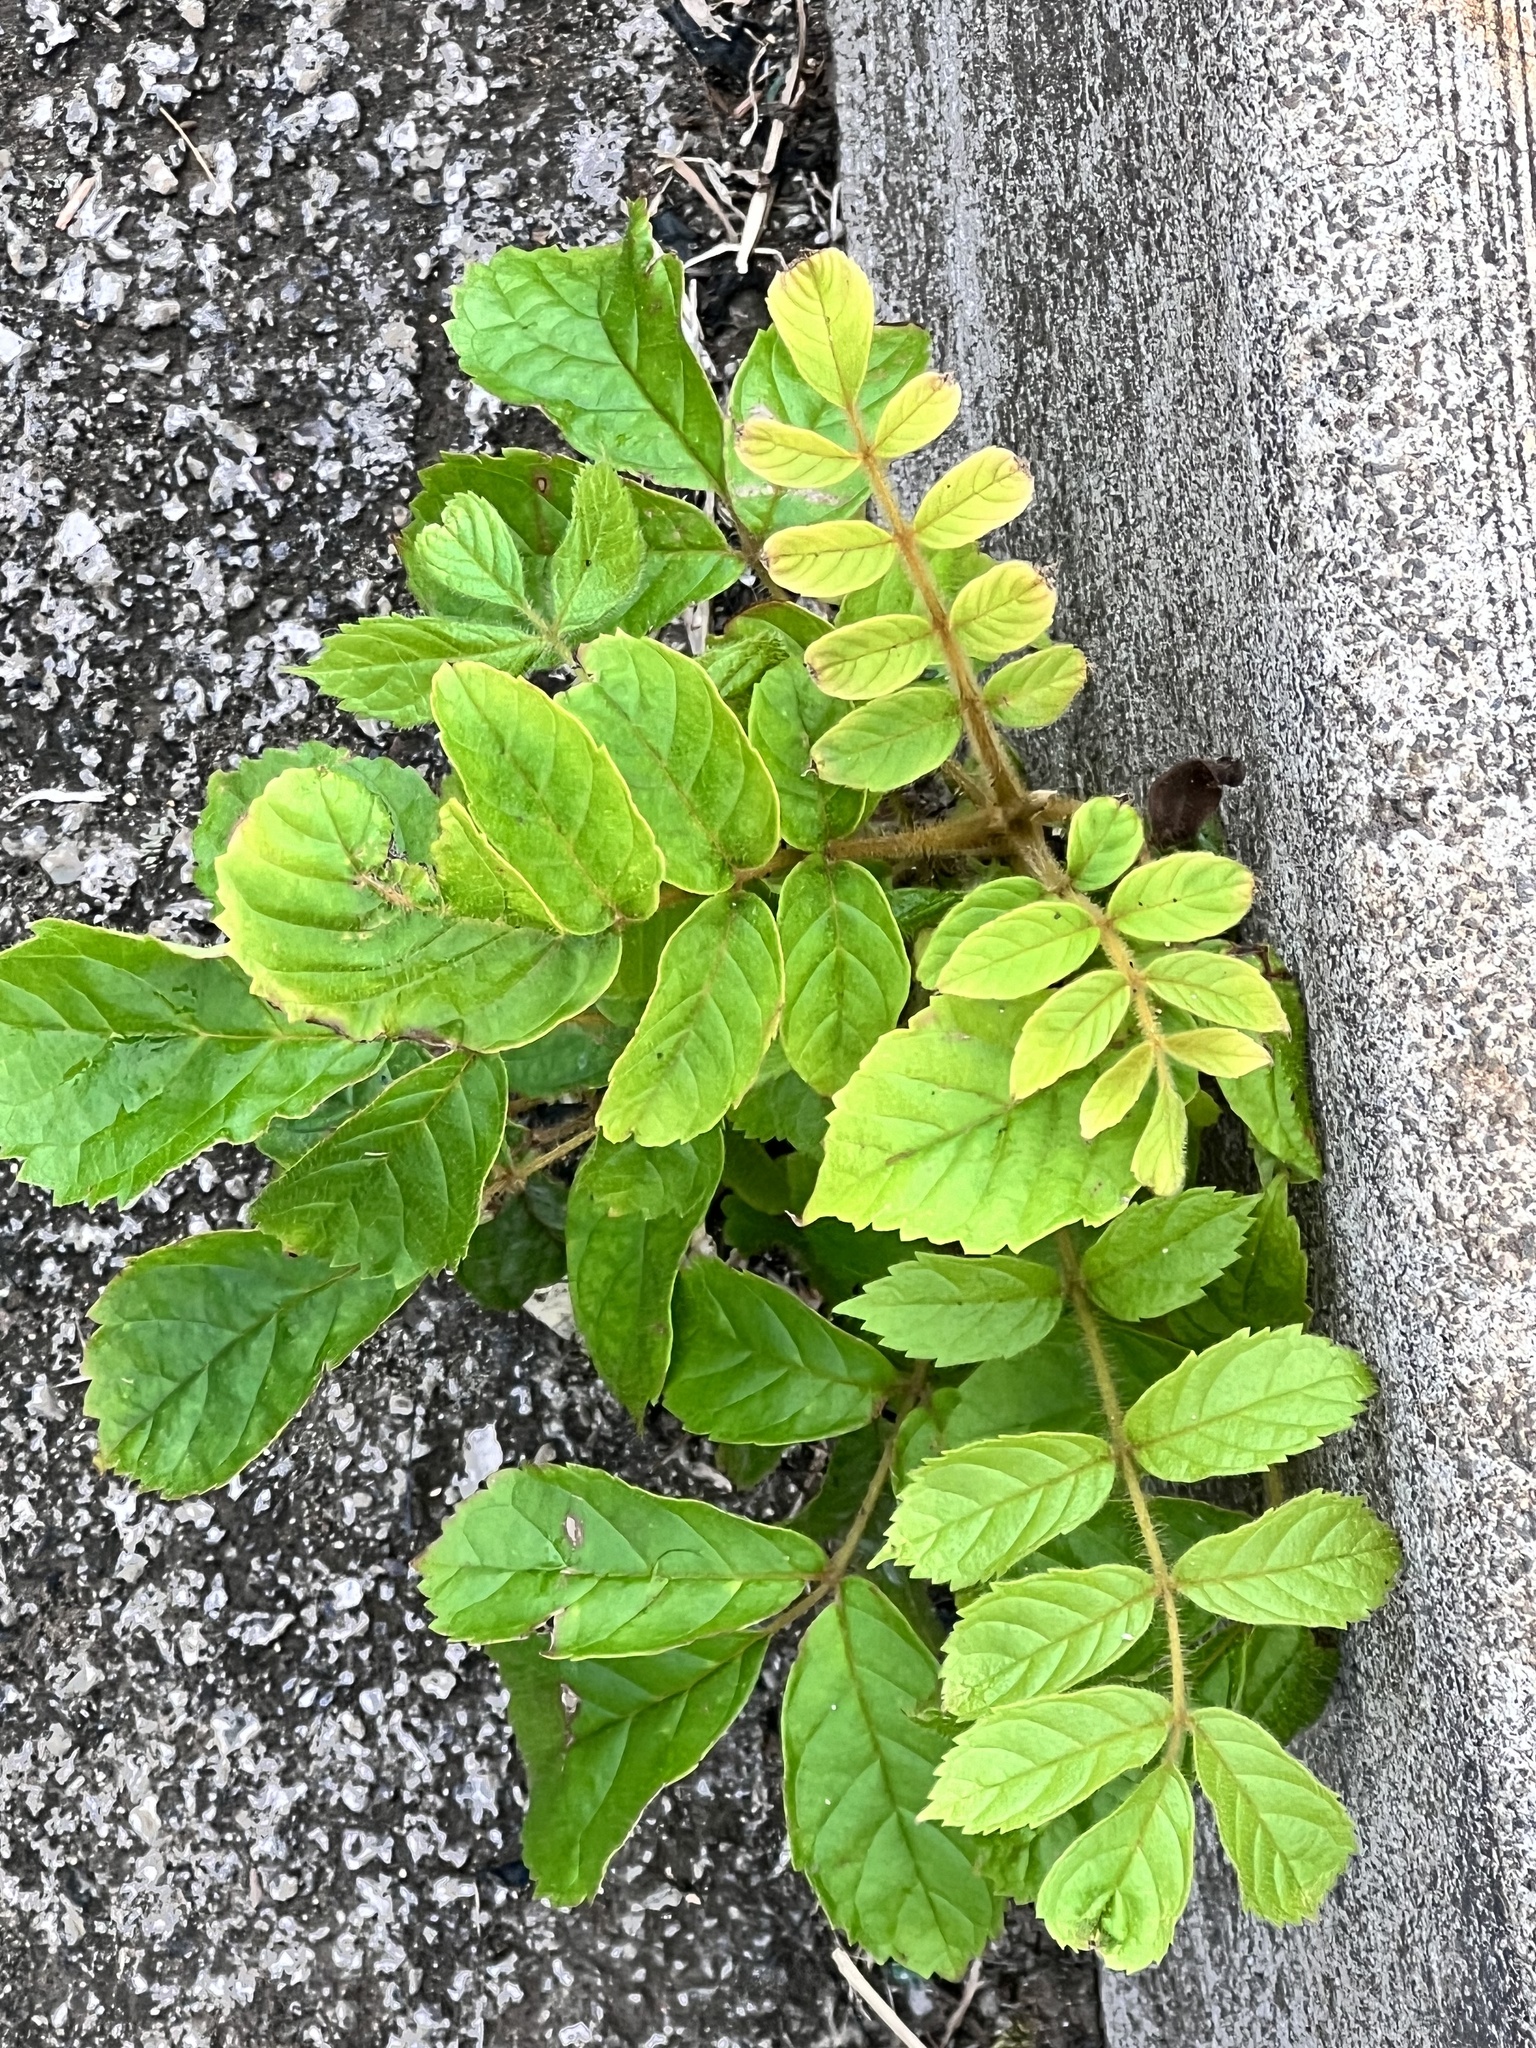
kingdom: Plantae
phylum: Tracheophyta
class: Magnoliopsida
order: Lamiales
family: Bignoniaceae
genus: Spathodea
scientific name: Spathodea campanulata
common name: African tuliptree
